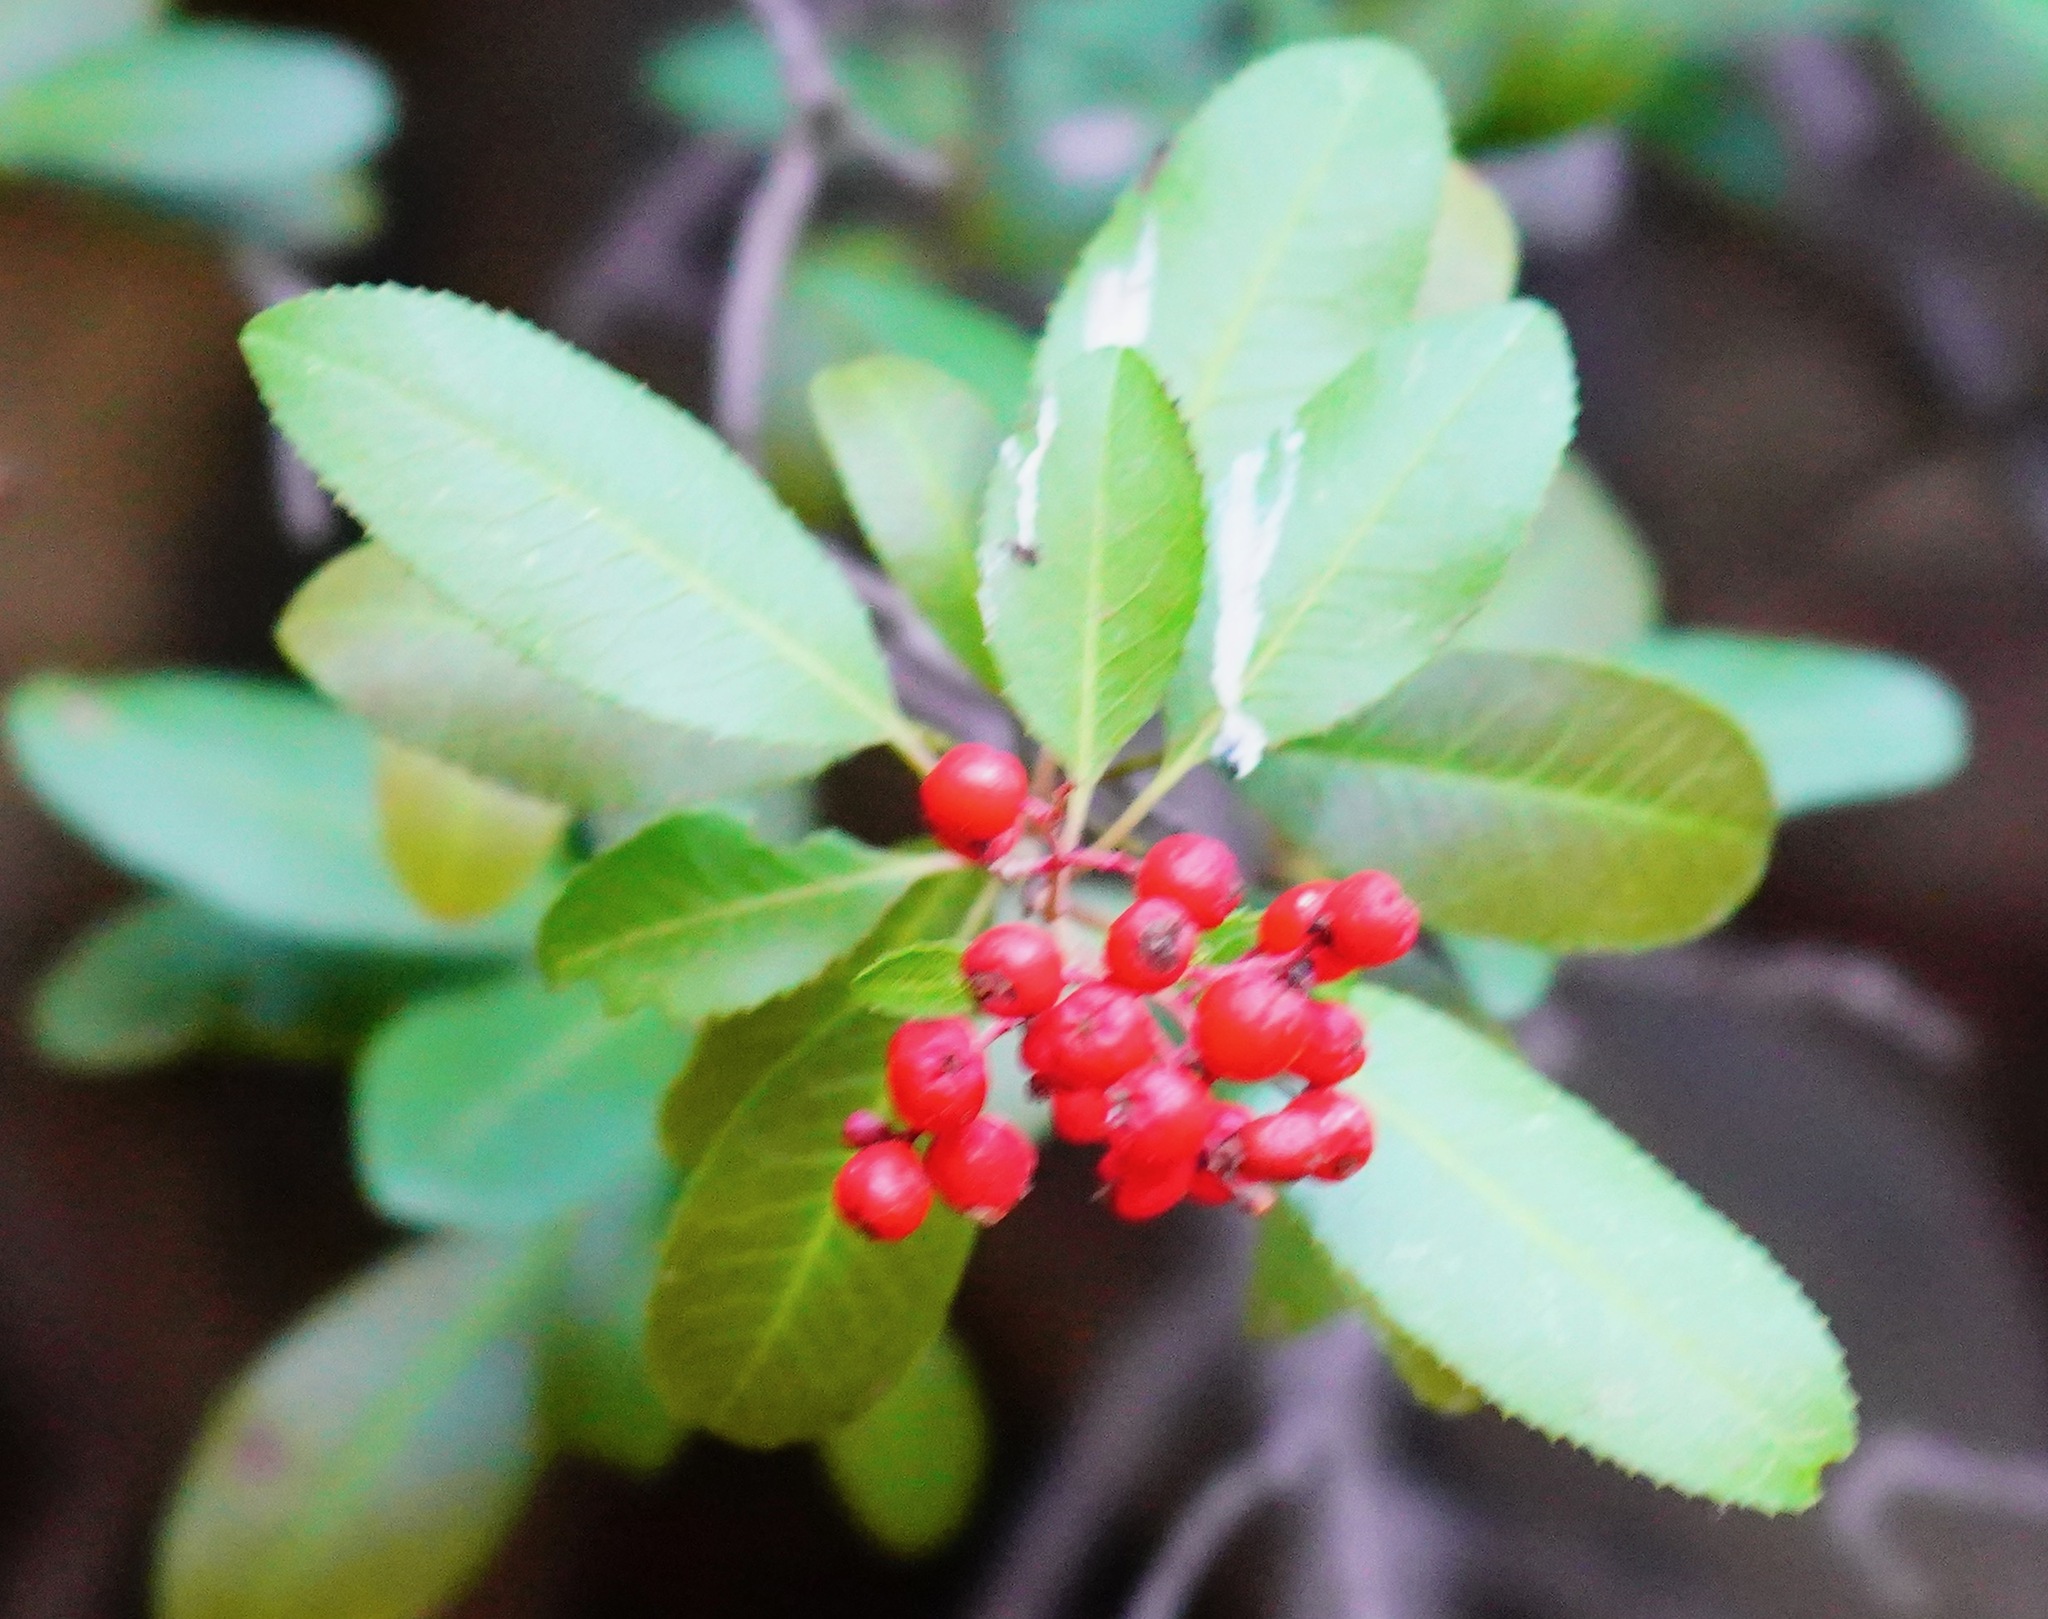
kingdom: Plantae
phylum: Tracheophyta
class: Magnoliopsida
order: Rosales
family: Rosaceae
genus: Heteromeles
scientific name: Heteromeles arbutifolia
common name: California-holly
